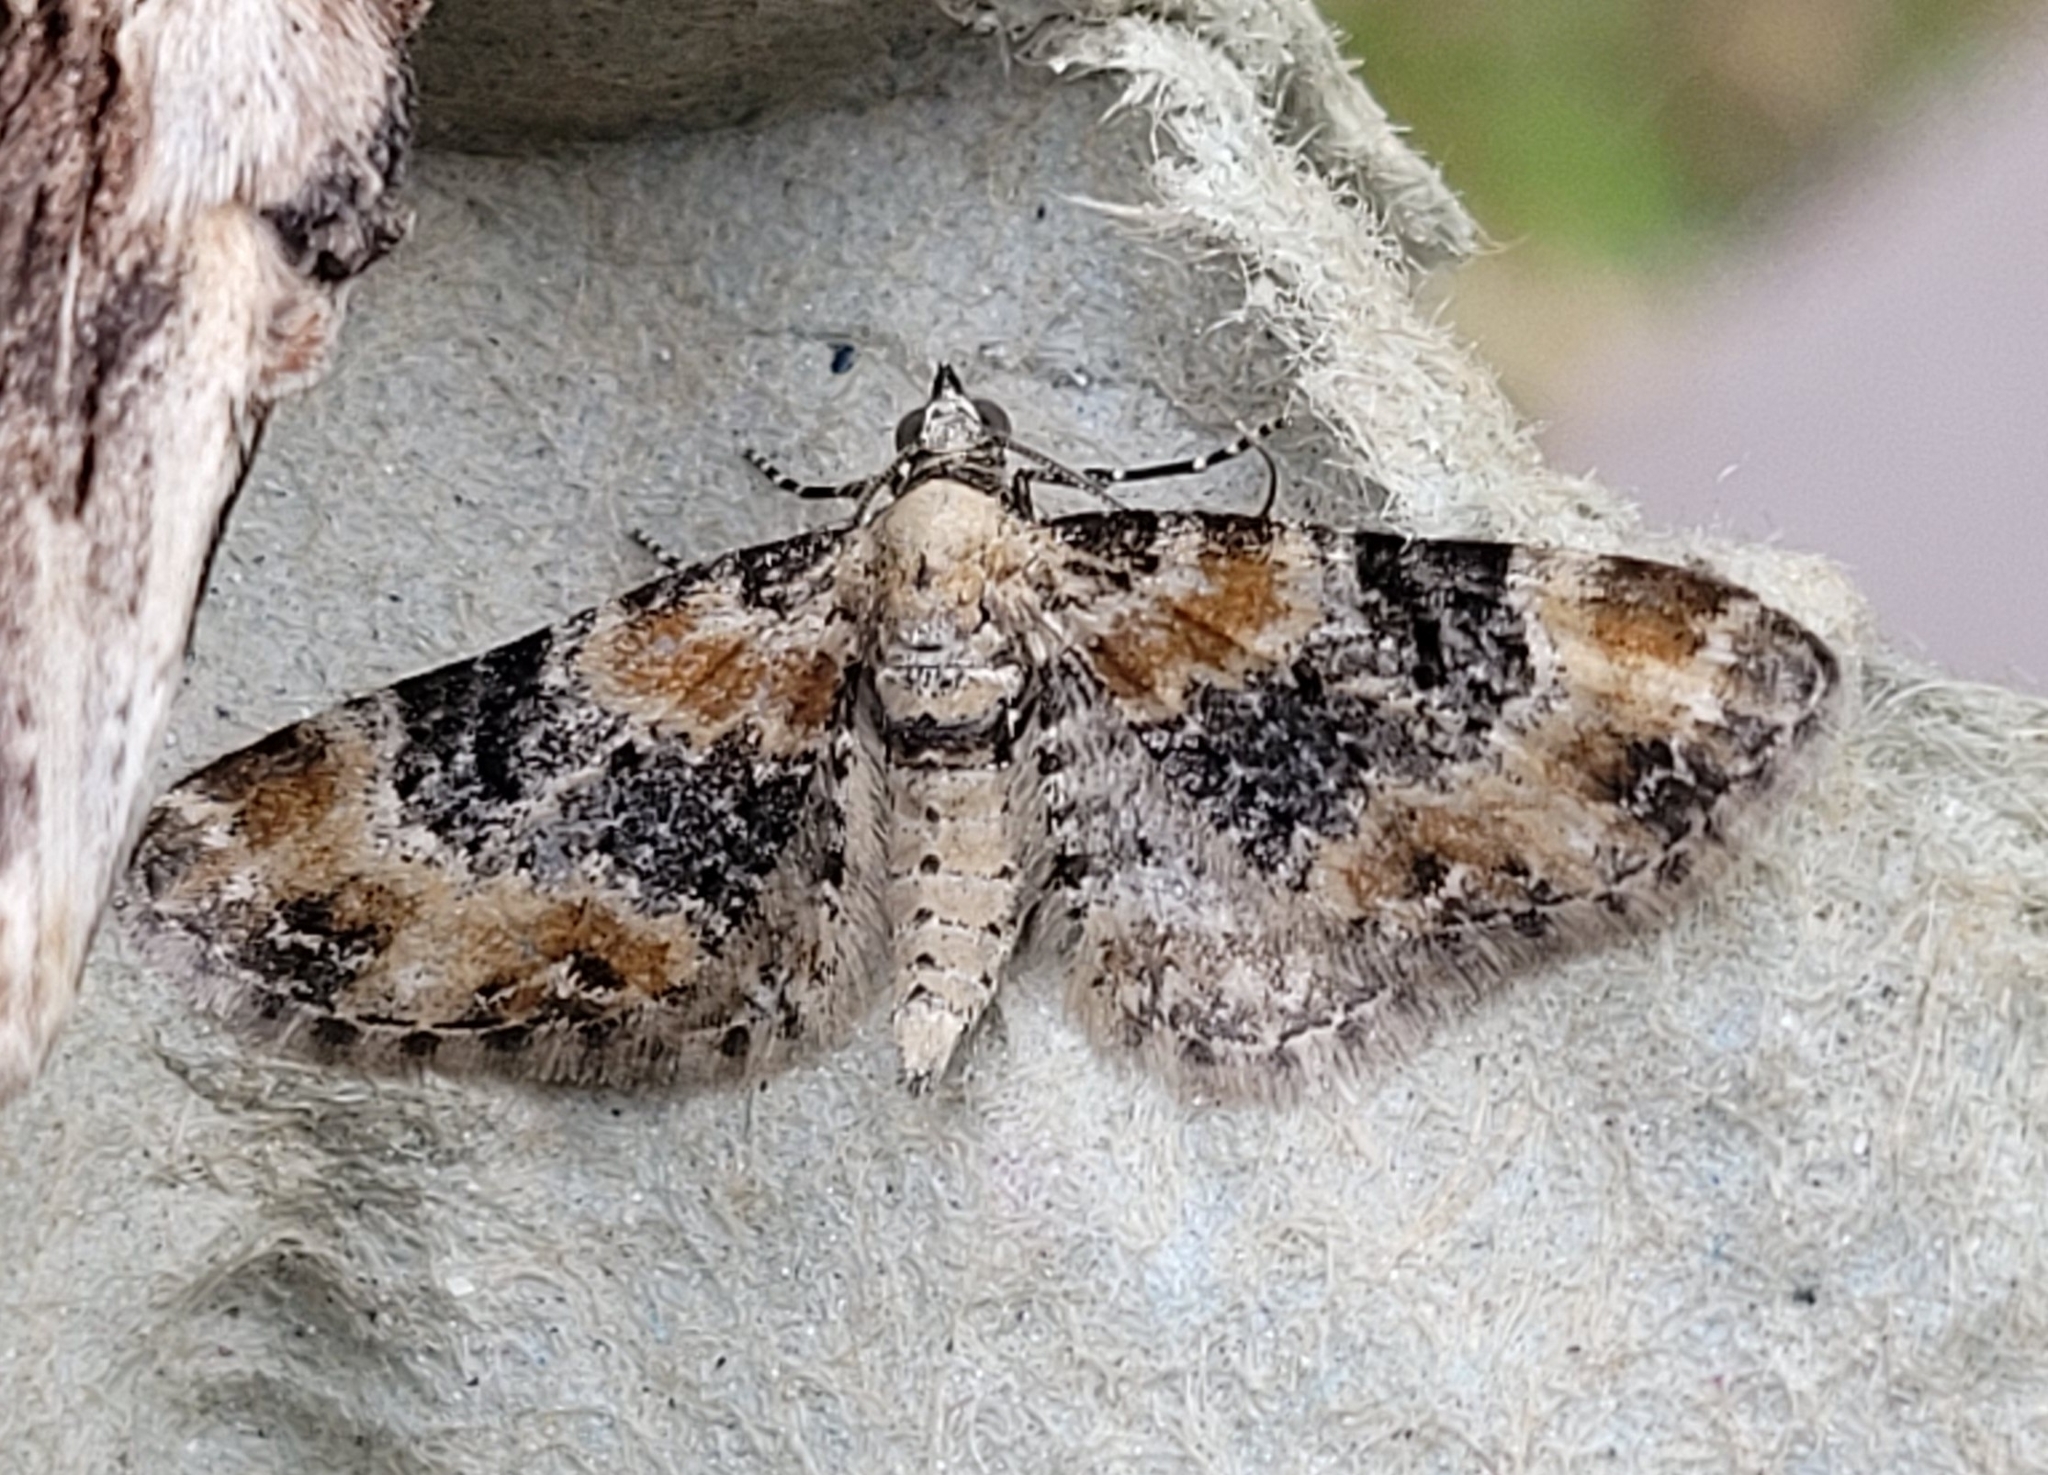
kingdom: Animalia
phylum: Arthropoda
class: Insecta
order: Lepidoptera
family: Geometridae
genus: Eupithecia
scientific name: Eupithecia pulchellata
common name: Foxglove pug
